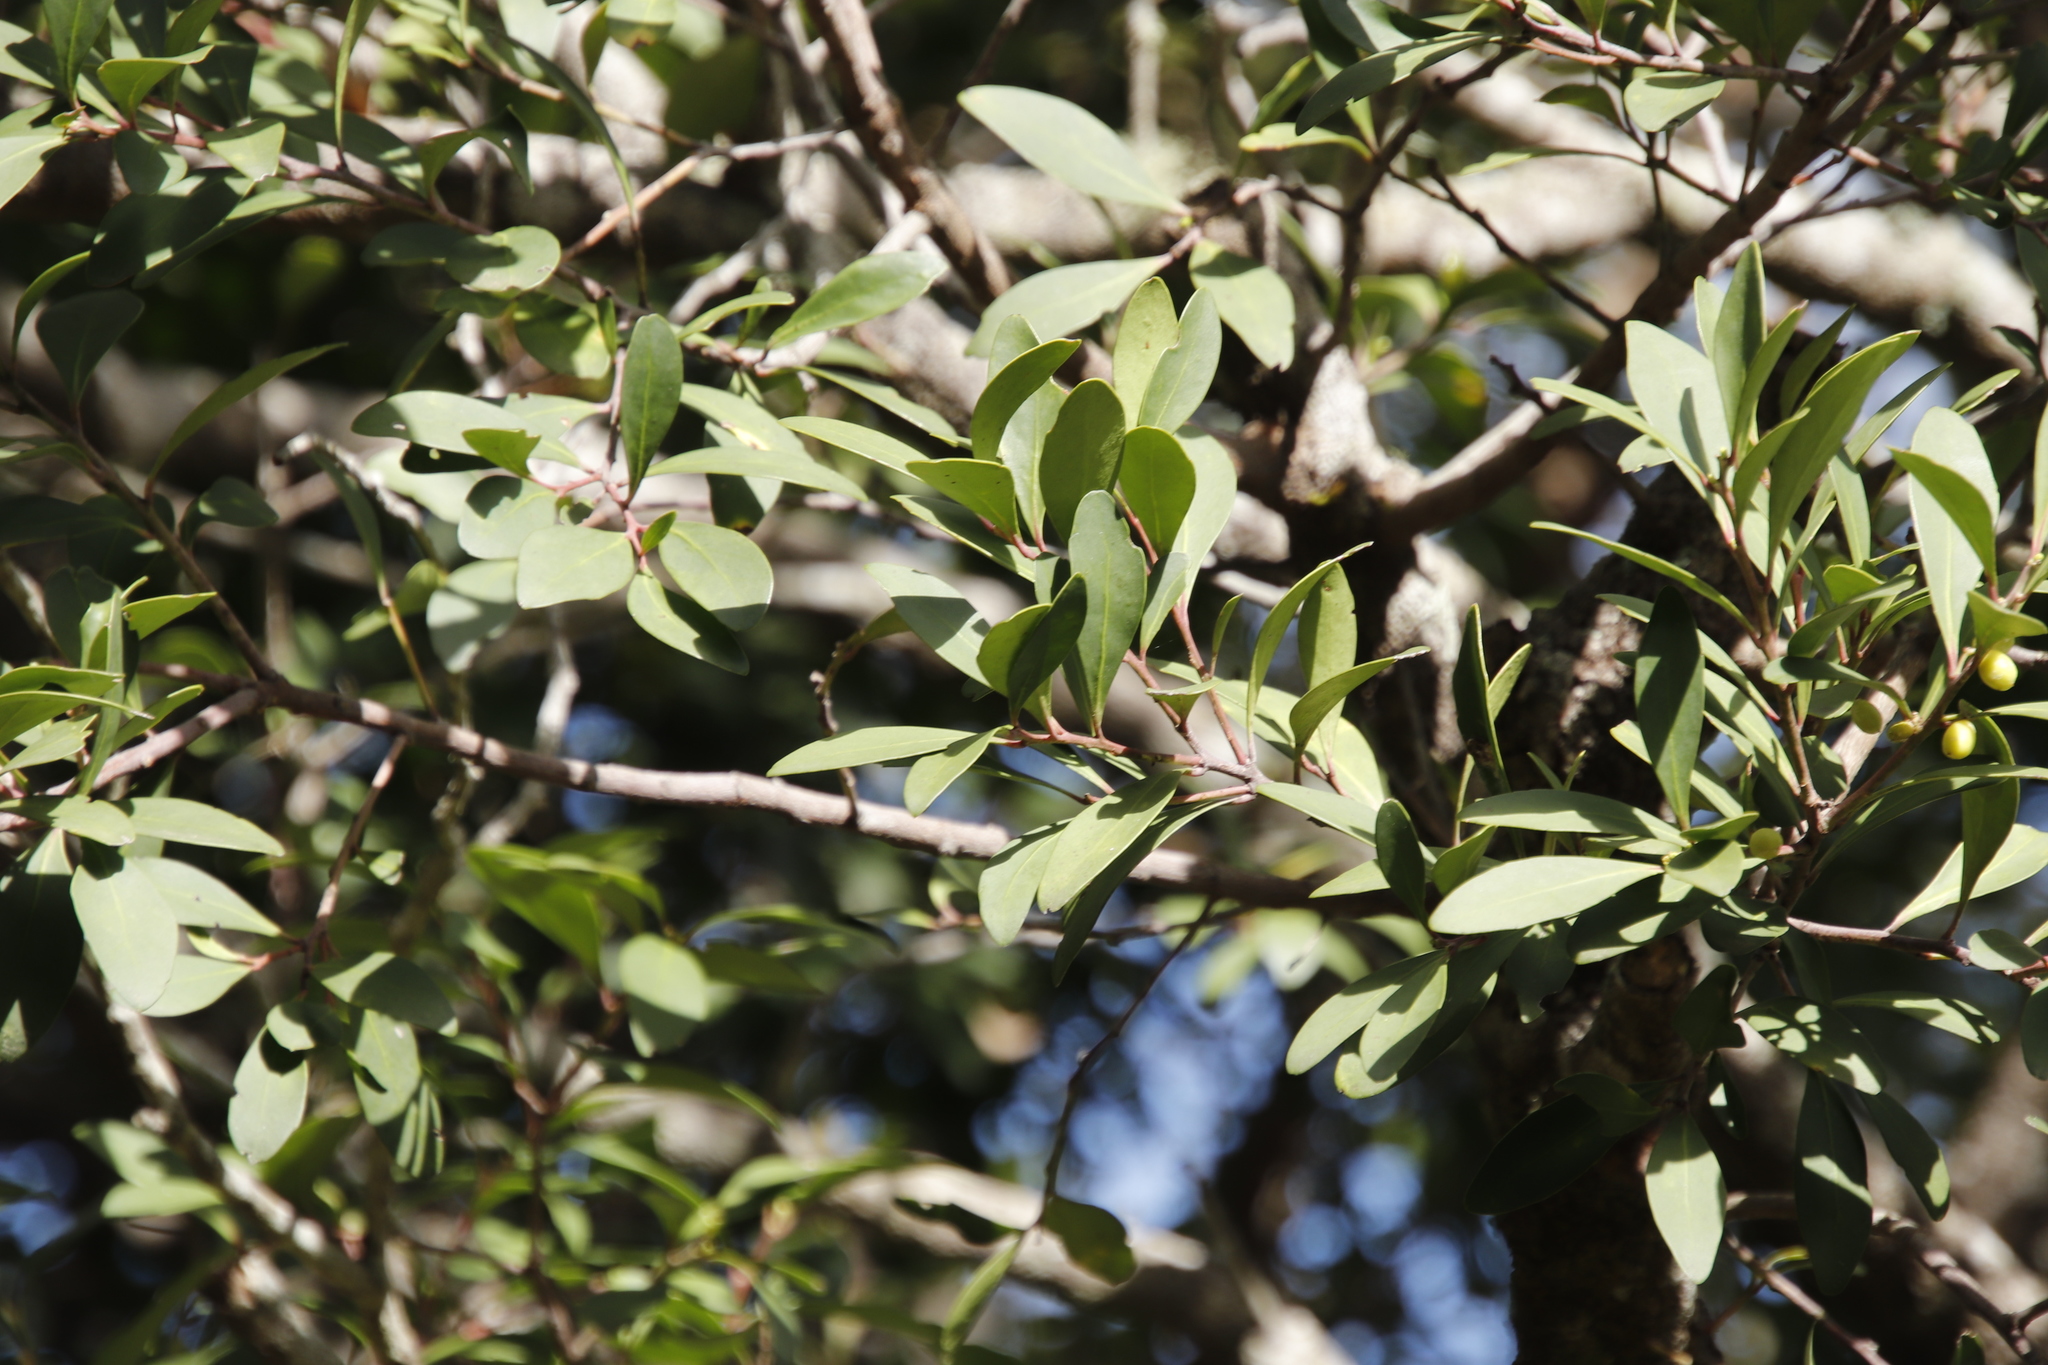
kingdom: Plantae
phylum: Tracheophyta
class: Magnoliopsida
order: Celastrales
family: Celastraceae
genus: Gymnosporia
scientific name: Gymnosporia laurina
